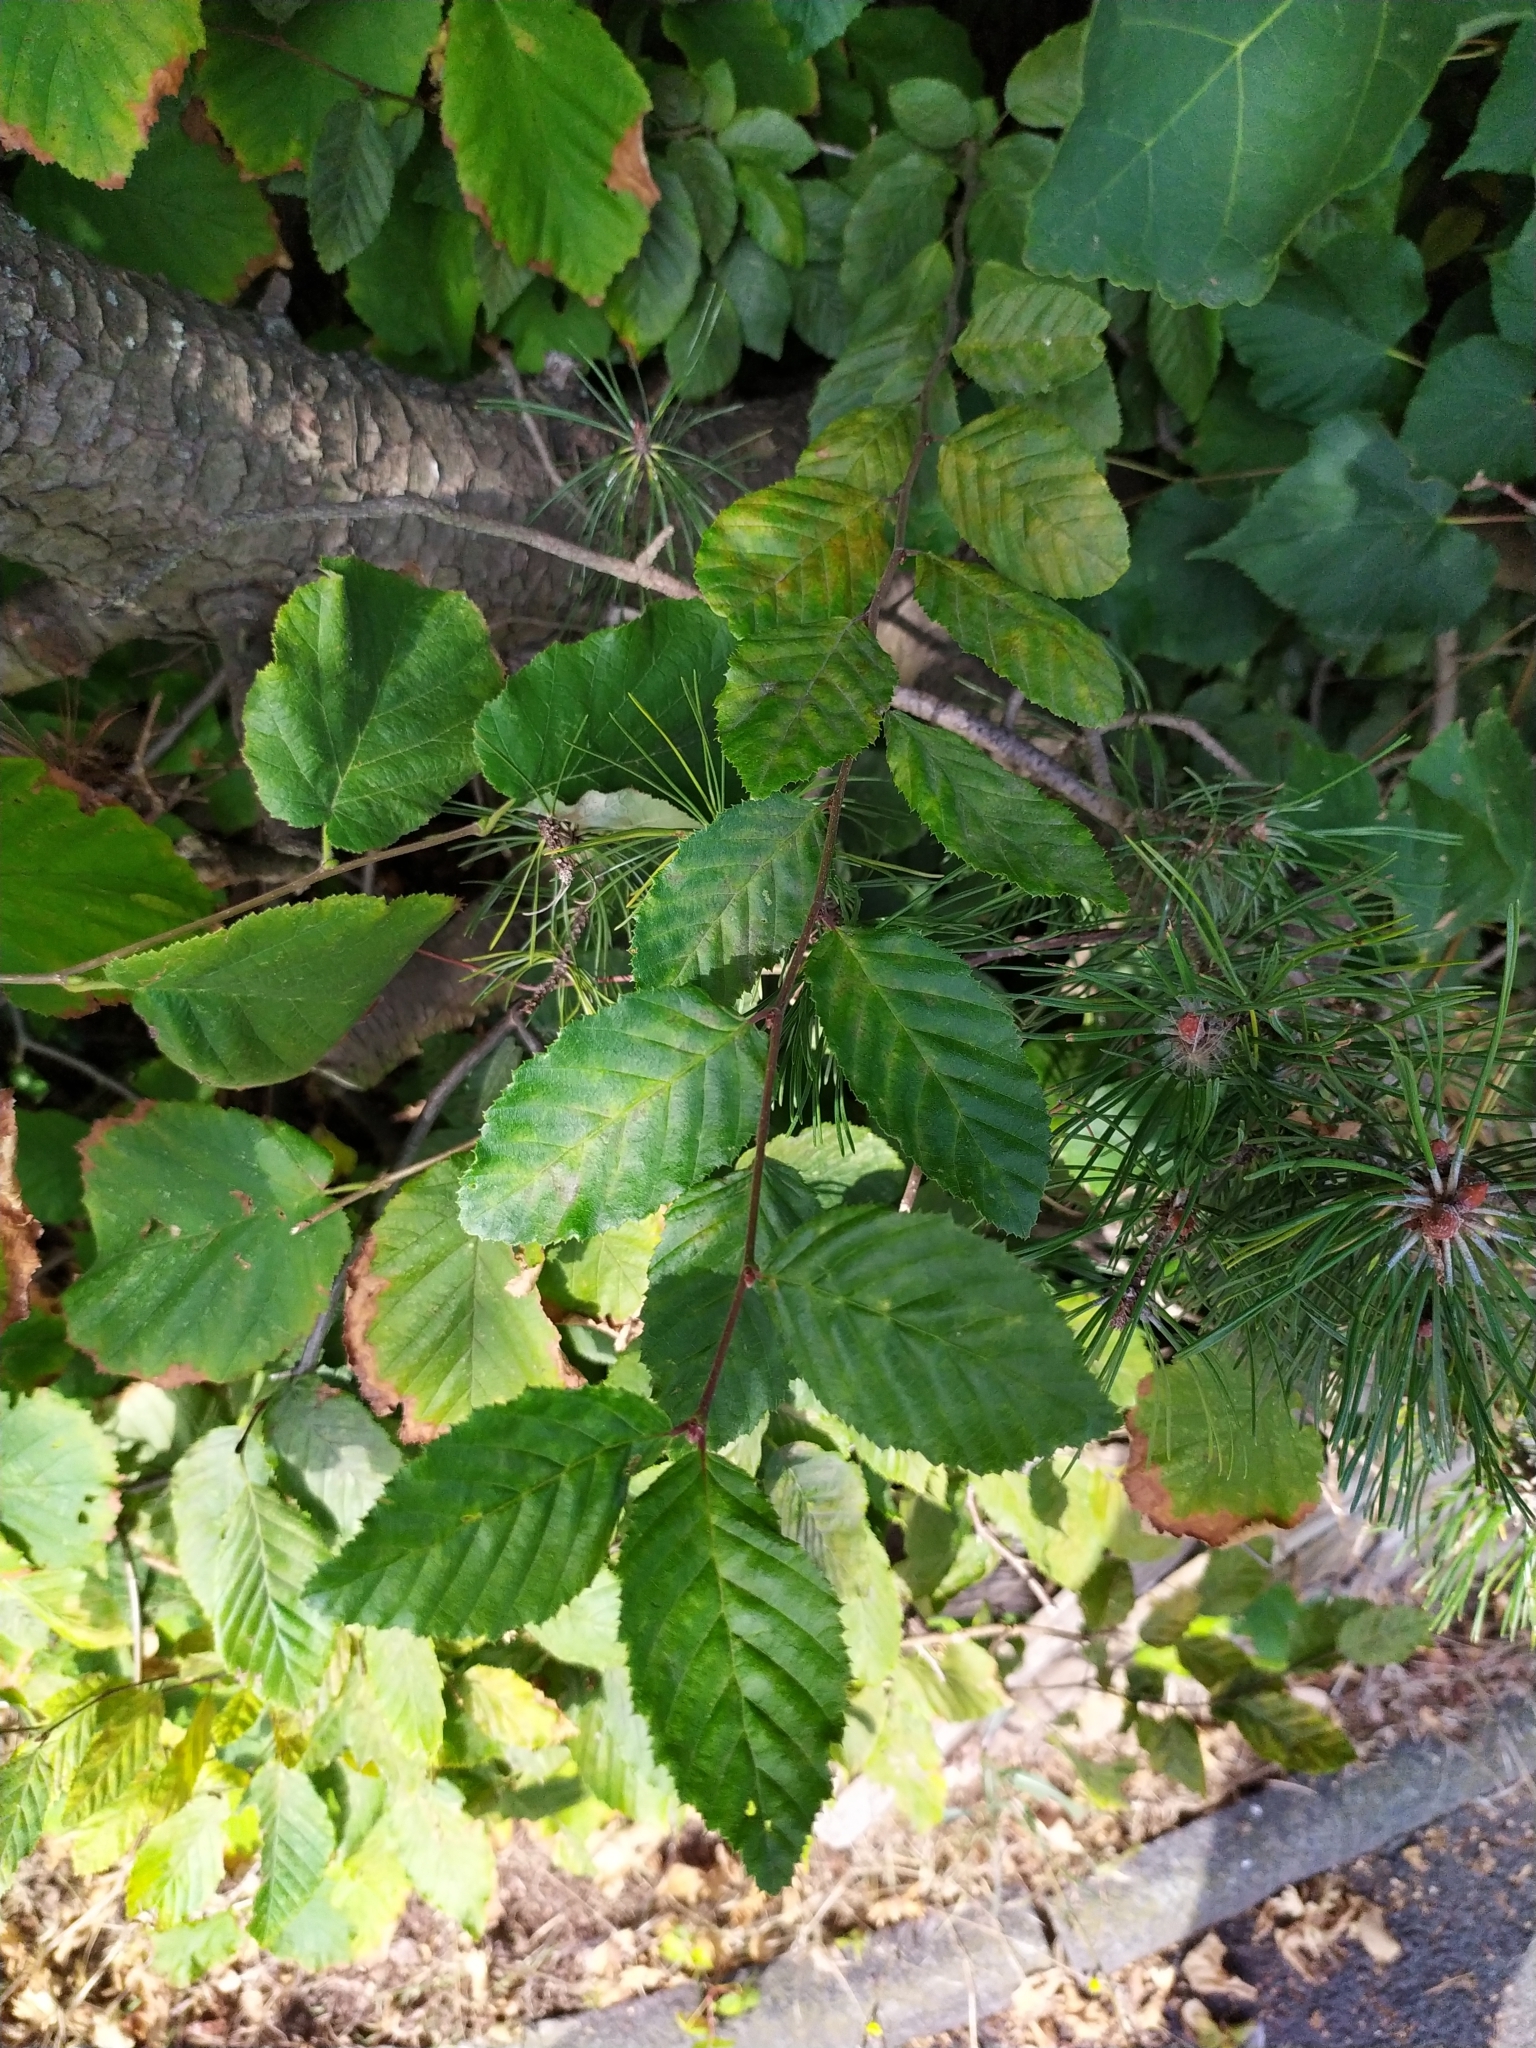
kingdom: Plantae
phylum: Tracheophyta
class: Magnoliopsida
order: Fagales
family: Betulaceae
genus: Carpinus
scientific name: Carpinus betulus
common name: Hornbeam
